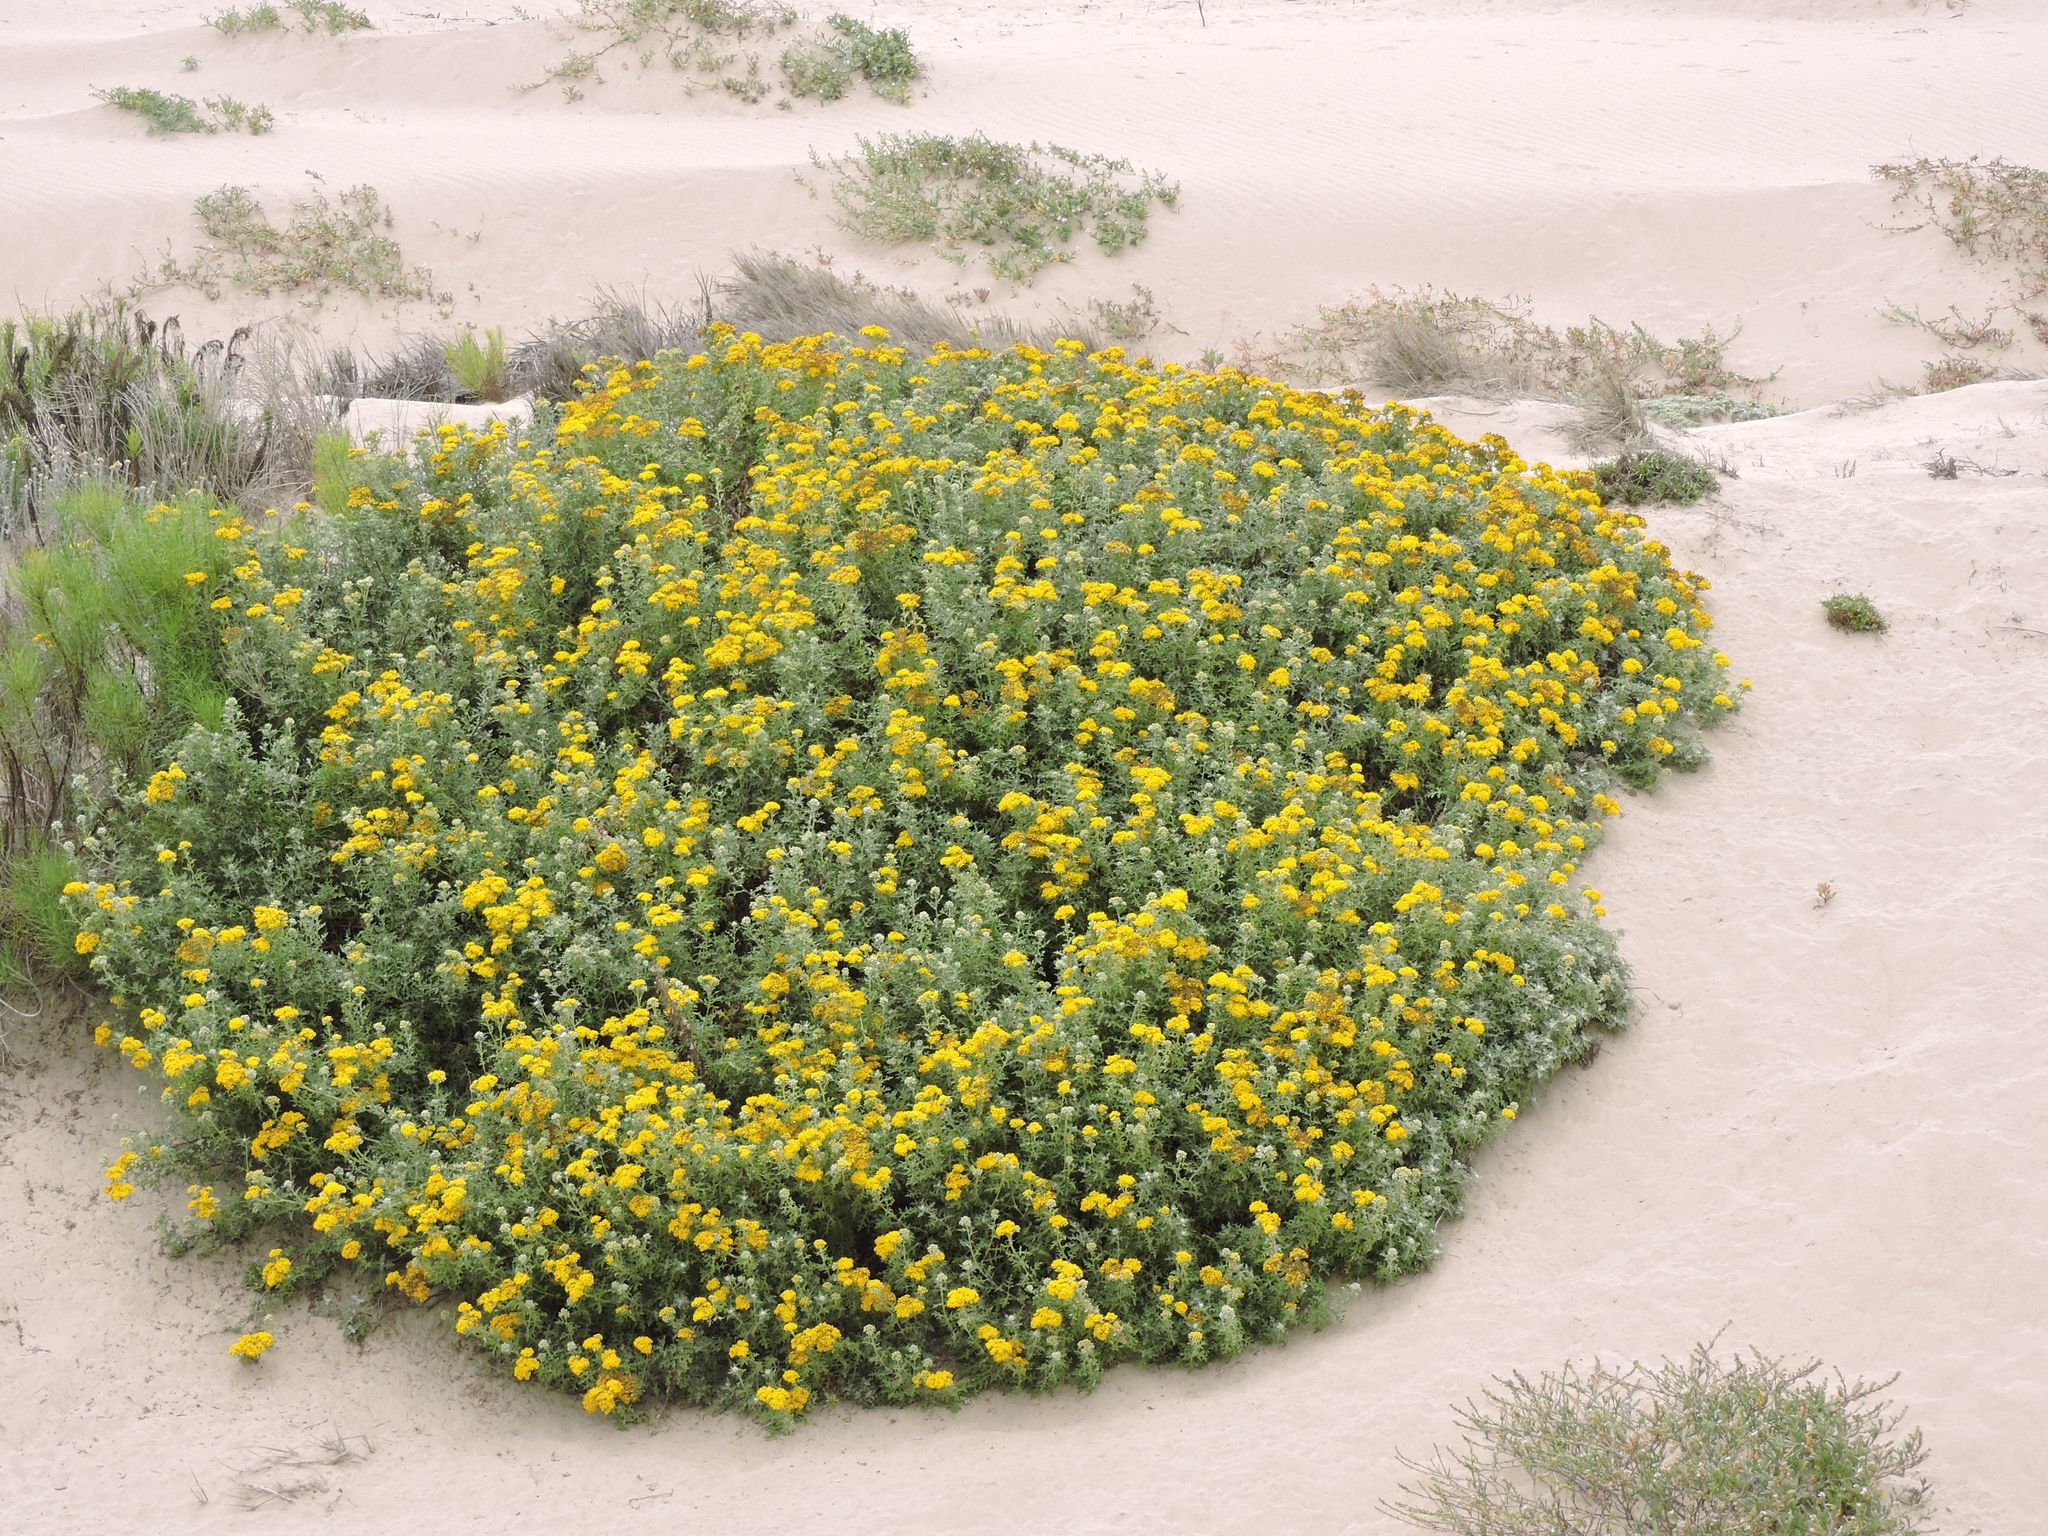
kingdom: Plantae
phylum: Tracheophyta
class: Magnoliopsida
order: Asterales
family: Asteraceae
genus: Eriophyllum
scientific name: Eriophyllum staechadifolium
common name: Lizardtail
